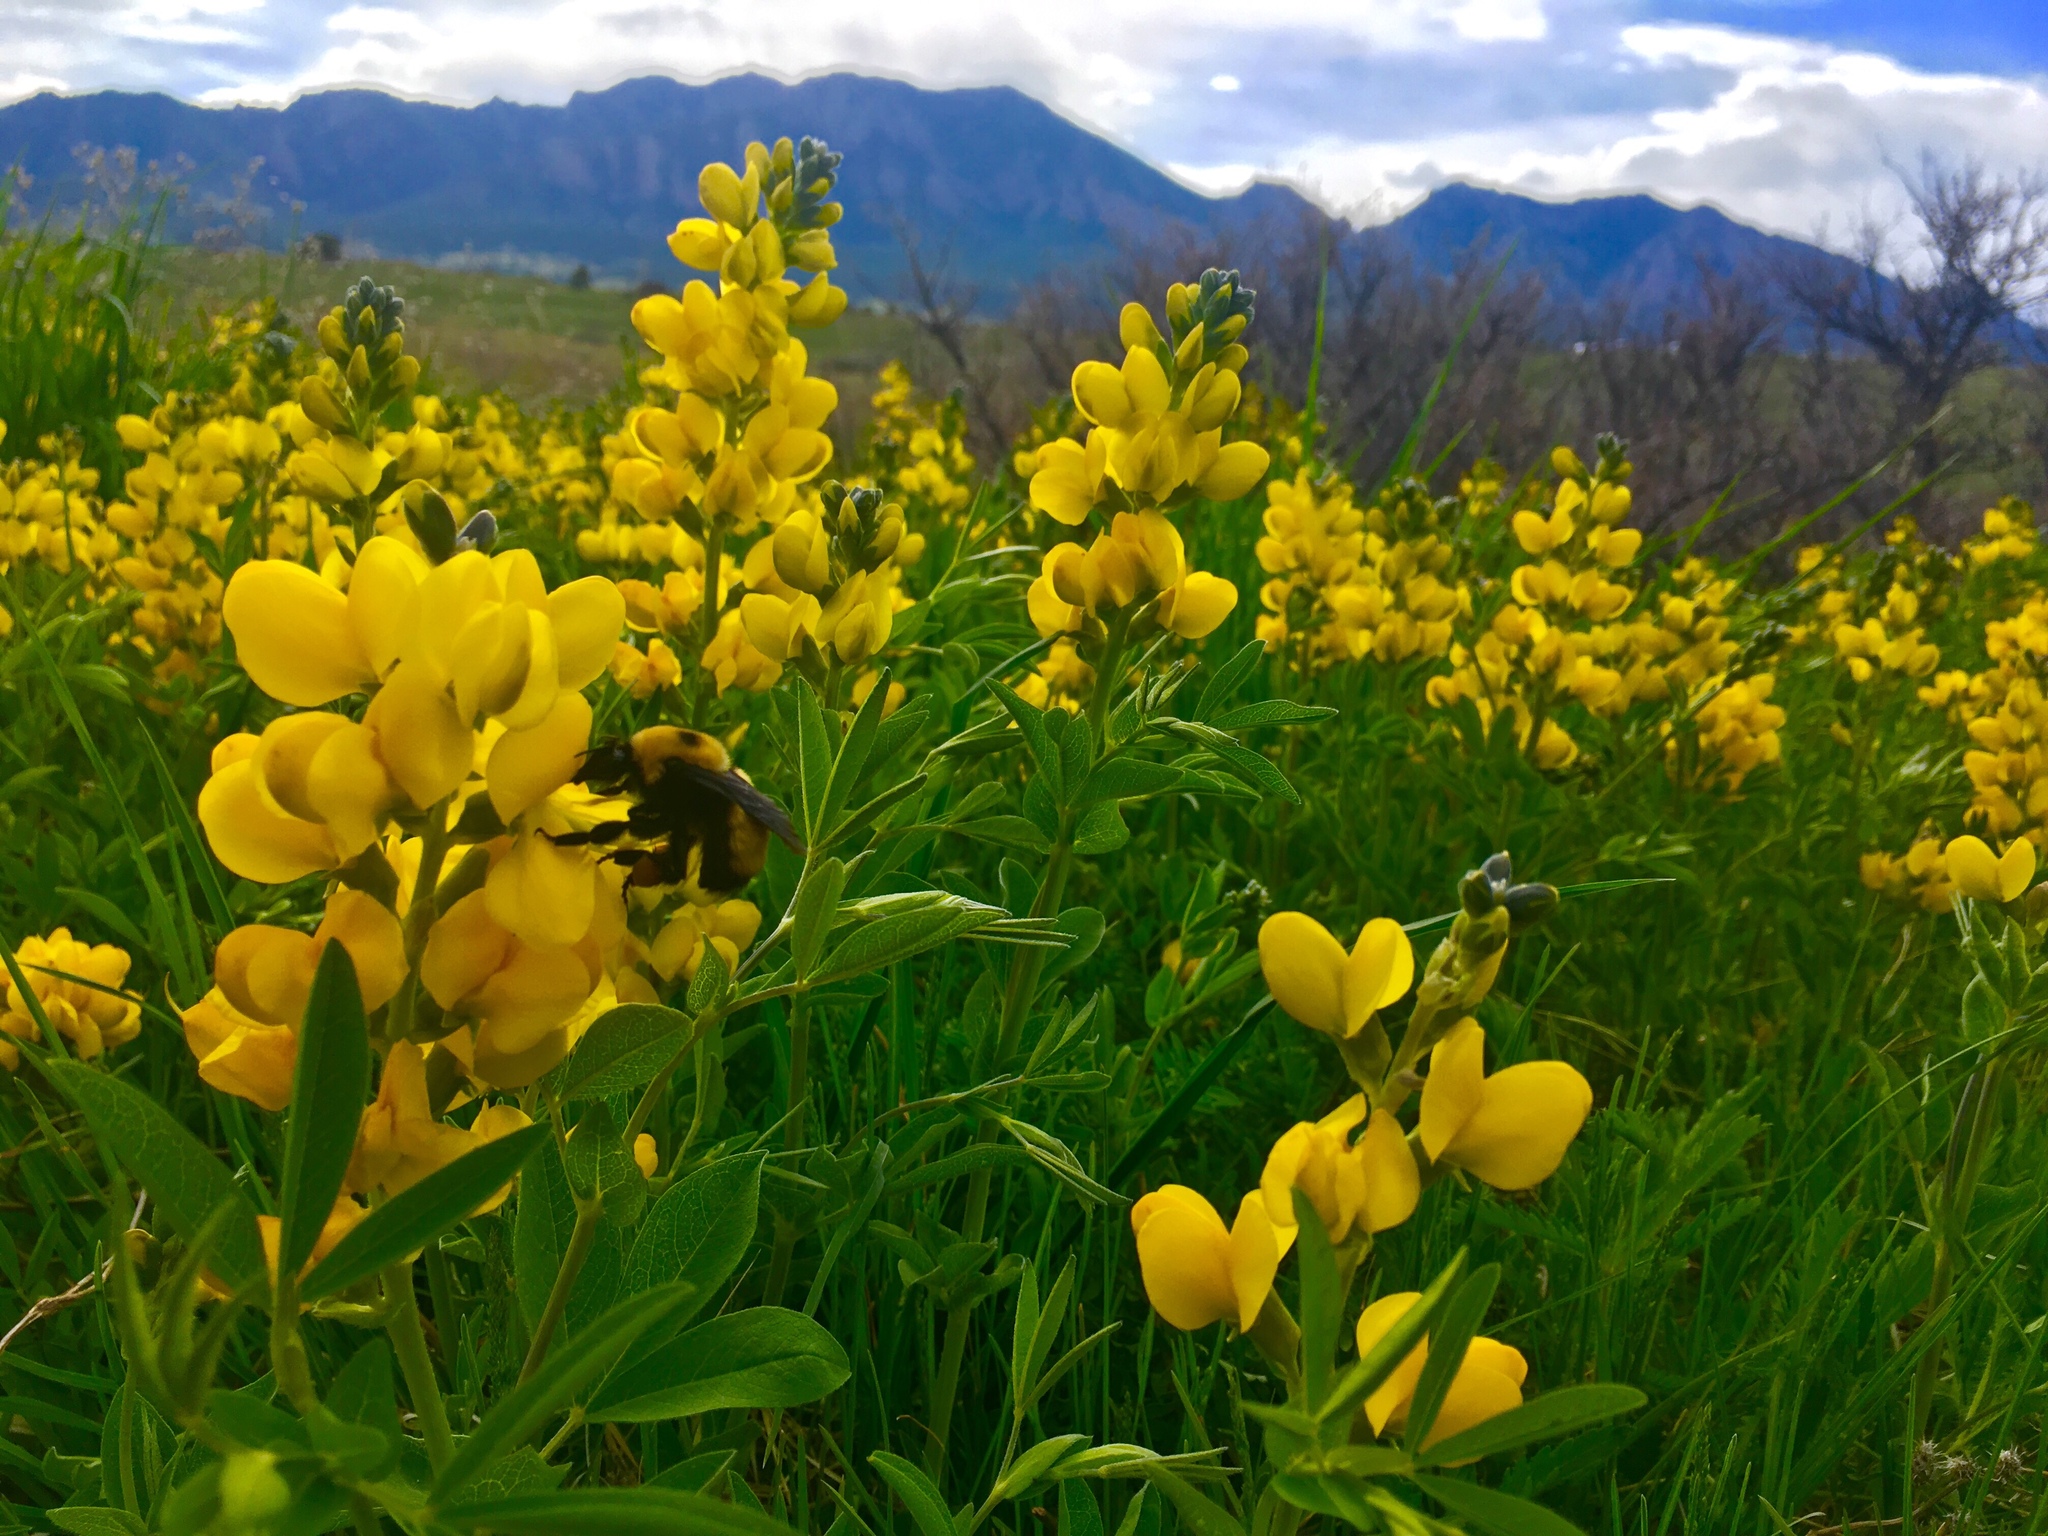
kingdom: Animalia
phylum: Arthropoda
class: Insecta
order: Hymenoptera
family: Apidae
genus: Bombus
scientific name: Bombus nevadensis
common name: Nevada bumble bee
